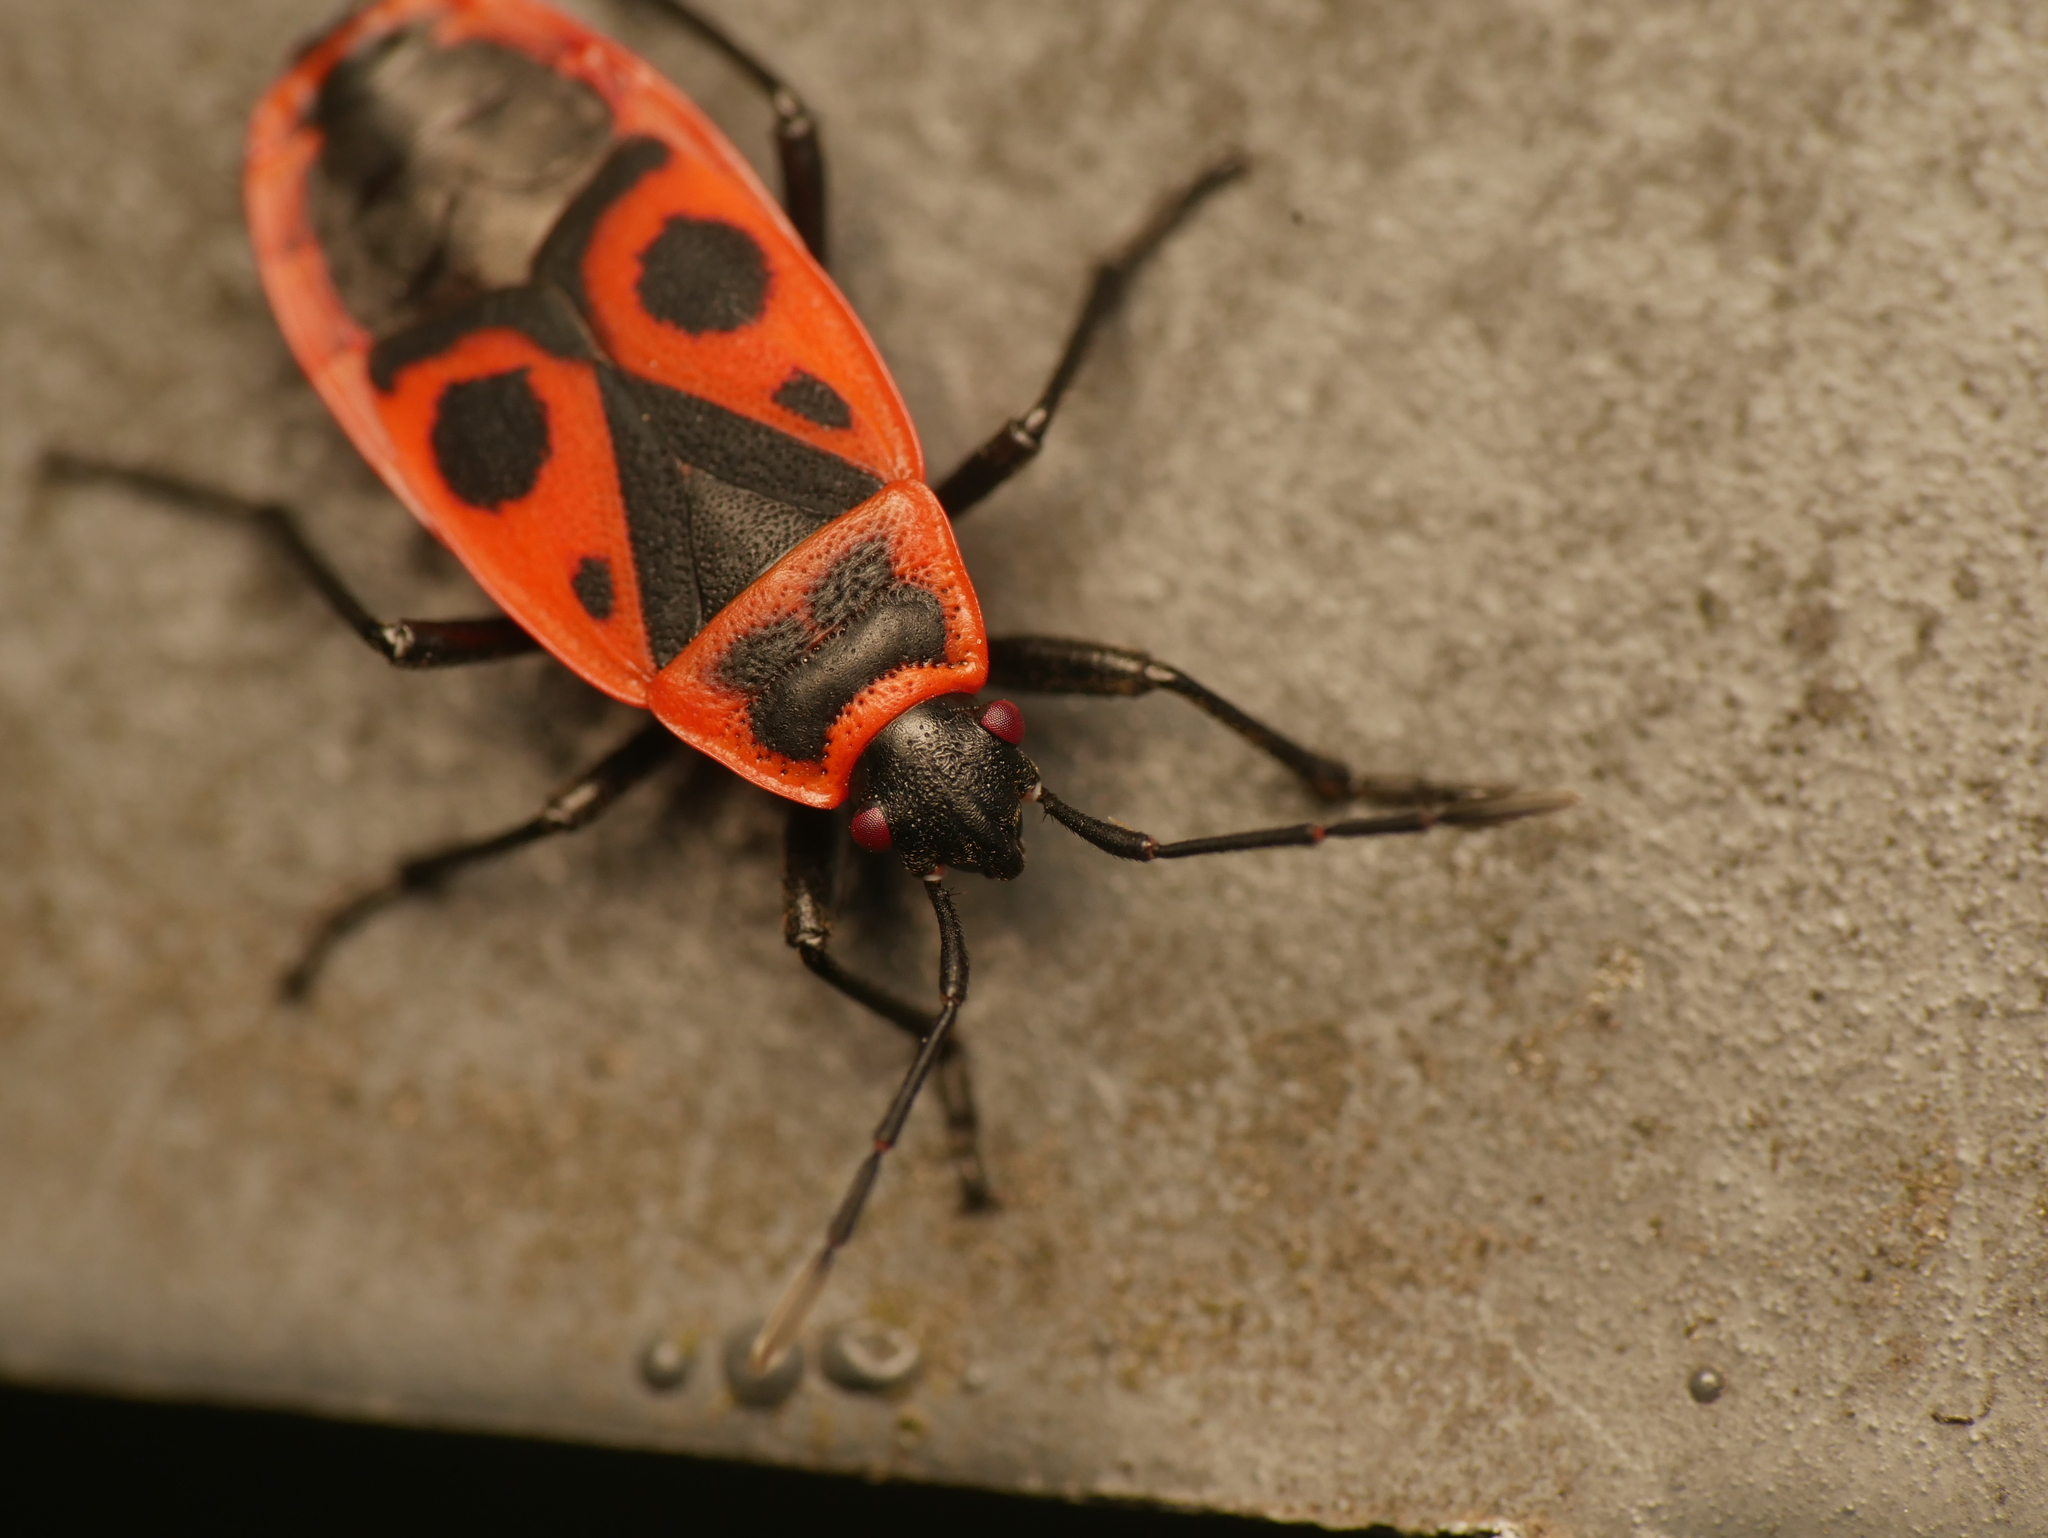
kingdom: Animalia
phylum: Arthropoda
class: Insecta
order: Hemiptera
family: Pyrrhocoridae
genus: Pyrrhocoris
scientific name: Pyrrhocoris apterus
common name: Firebug
